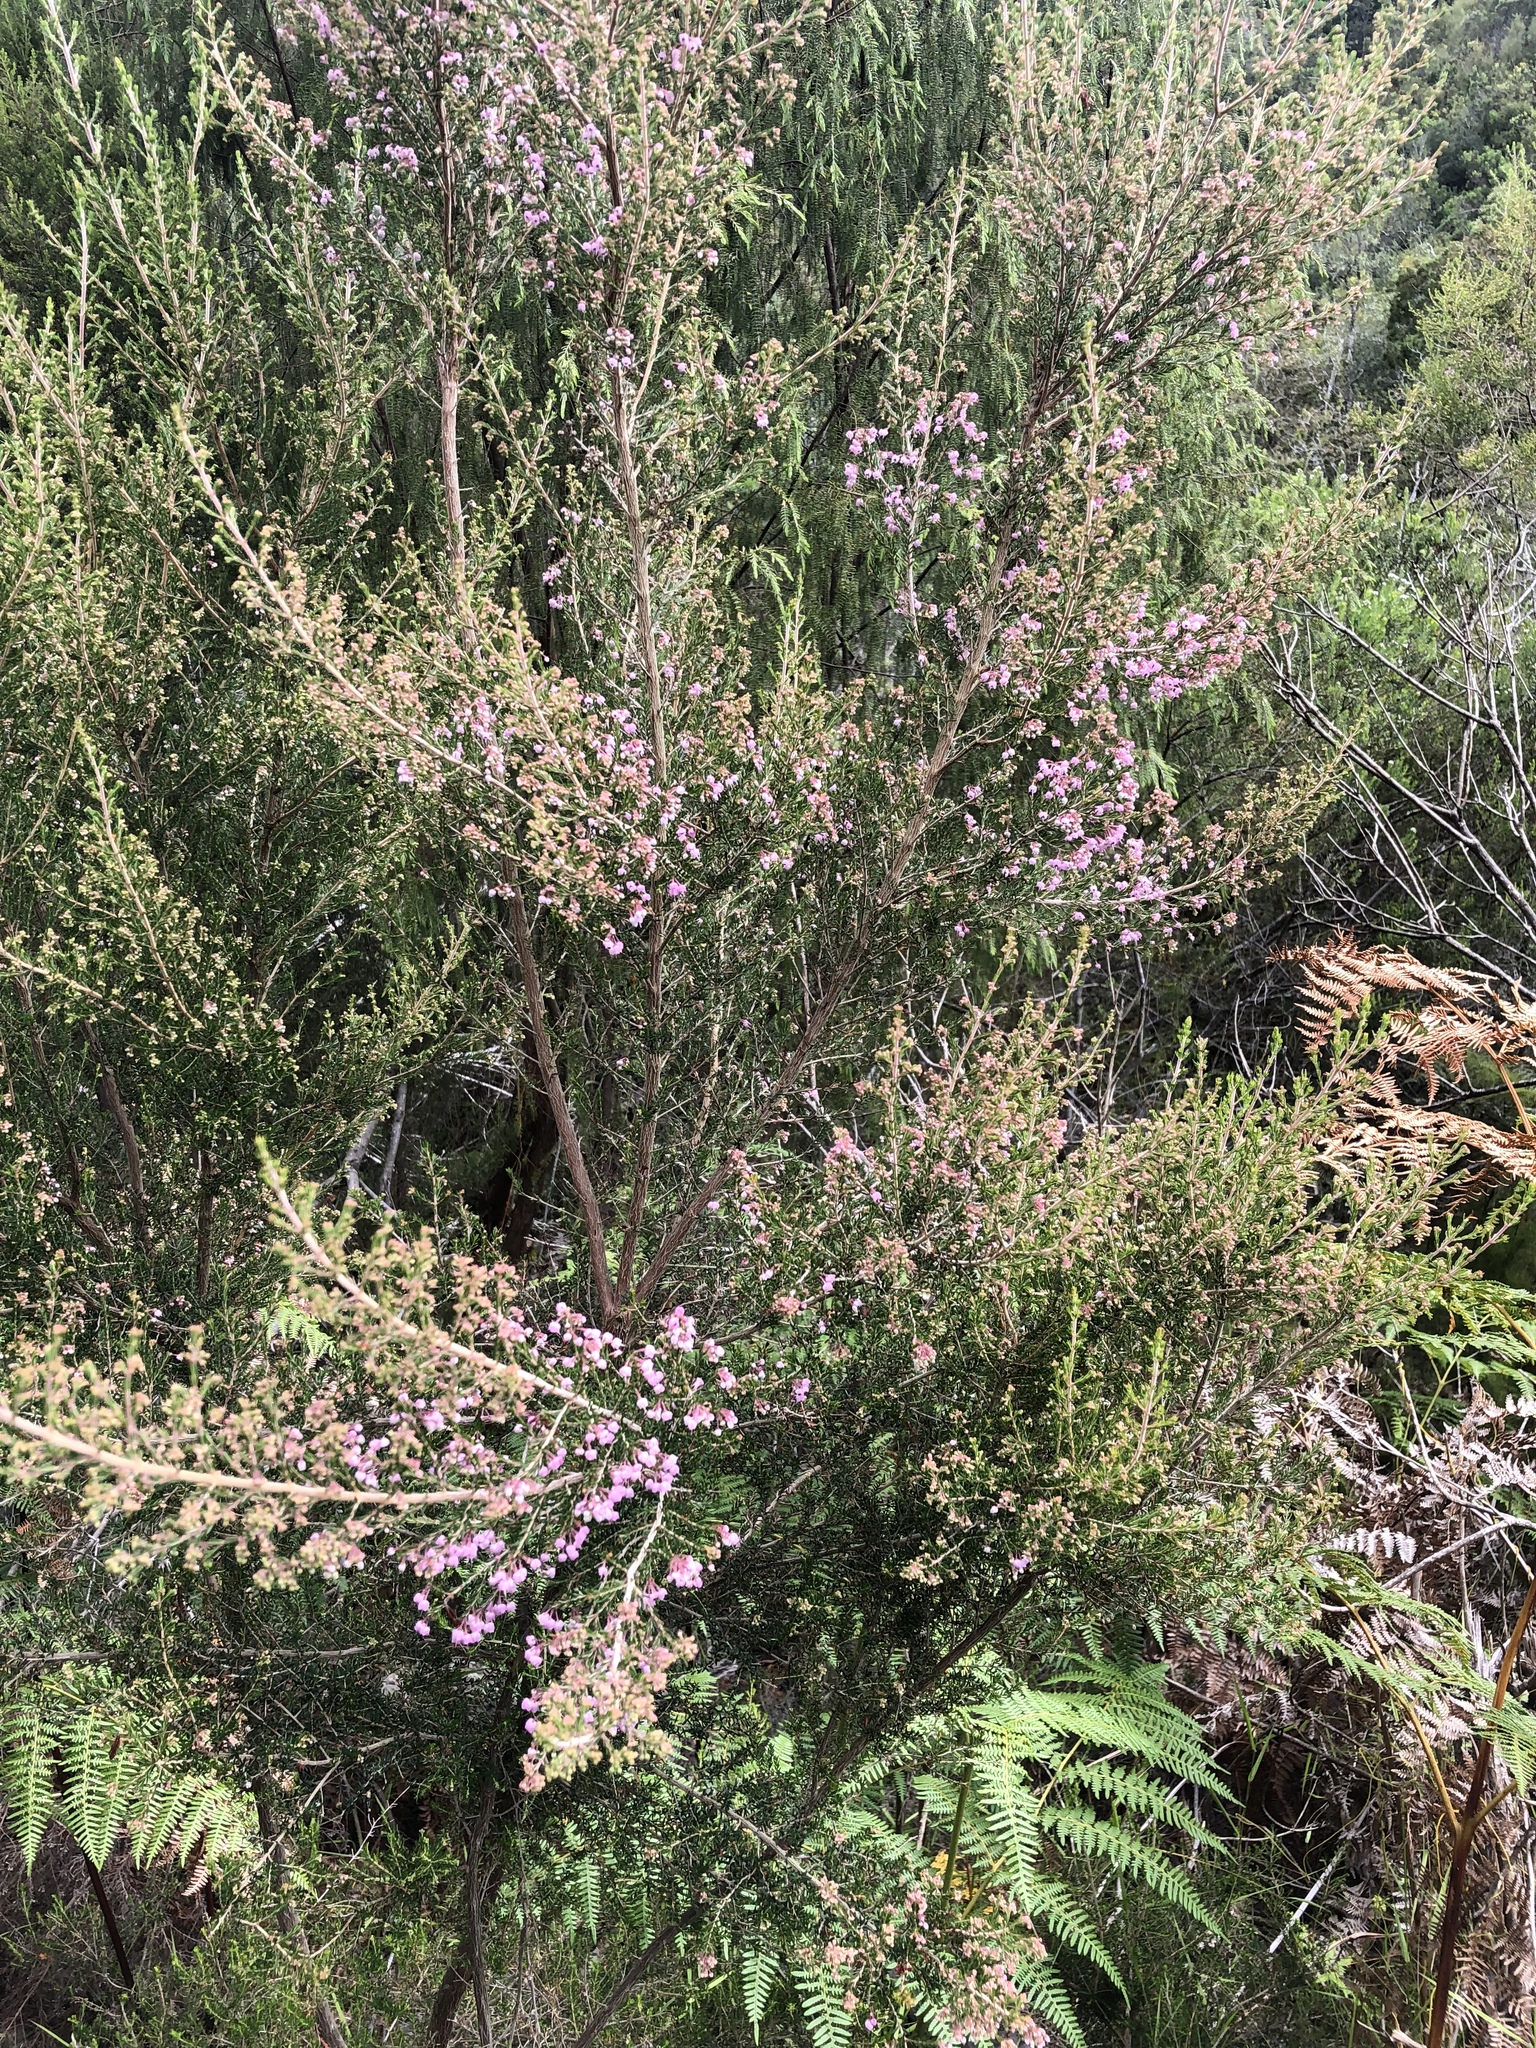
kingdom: Plantae
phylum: Tracheophyta
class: Magnoliopsida
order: Ericales
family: Ericaceae
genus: Erica
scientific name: Erica canaliculata
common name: Hairy grey heather
